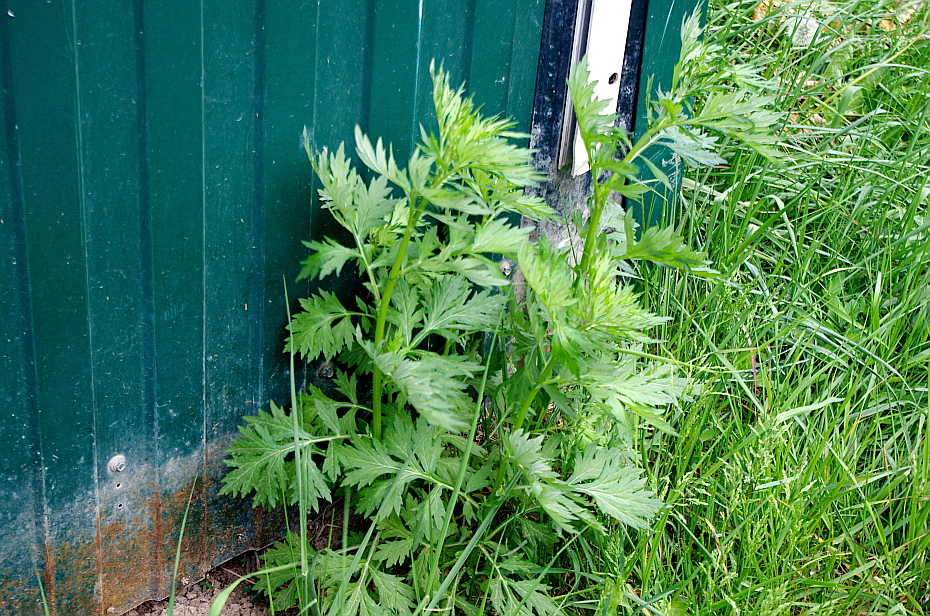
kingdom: Plantae
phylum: Tracheophyta
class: Magnoliopsida
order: Asterales
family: Asteraceae
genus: Artemisia
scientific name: Artemisia vulgaris
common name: Mugwort
